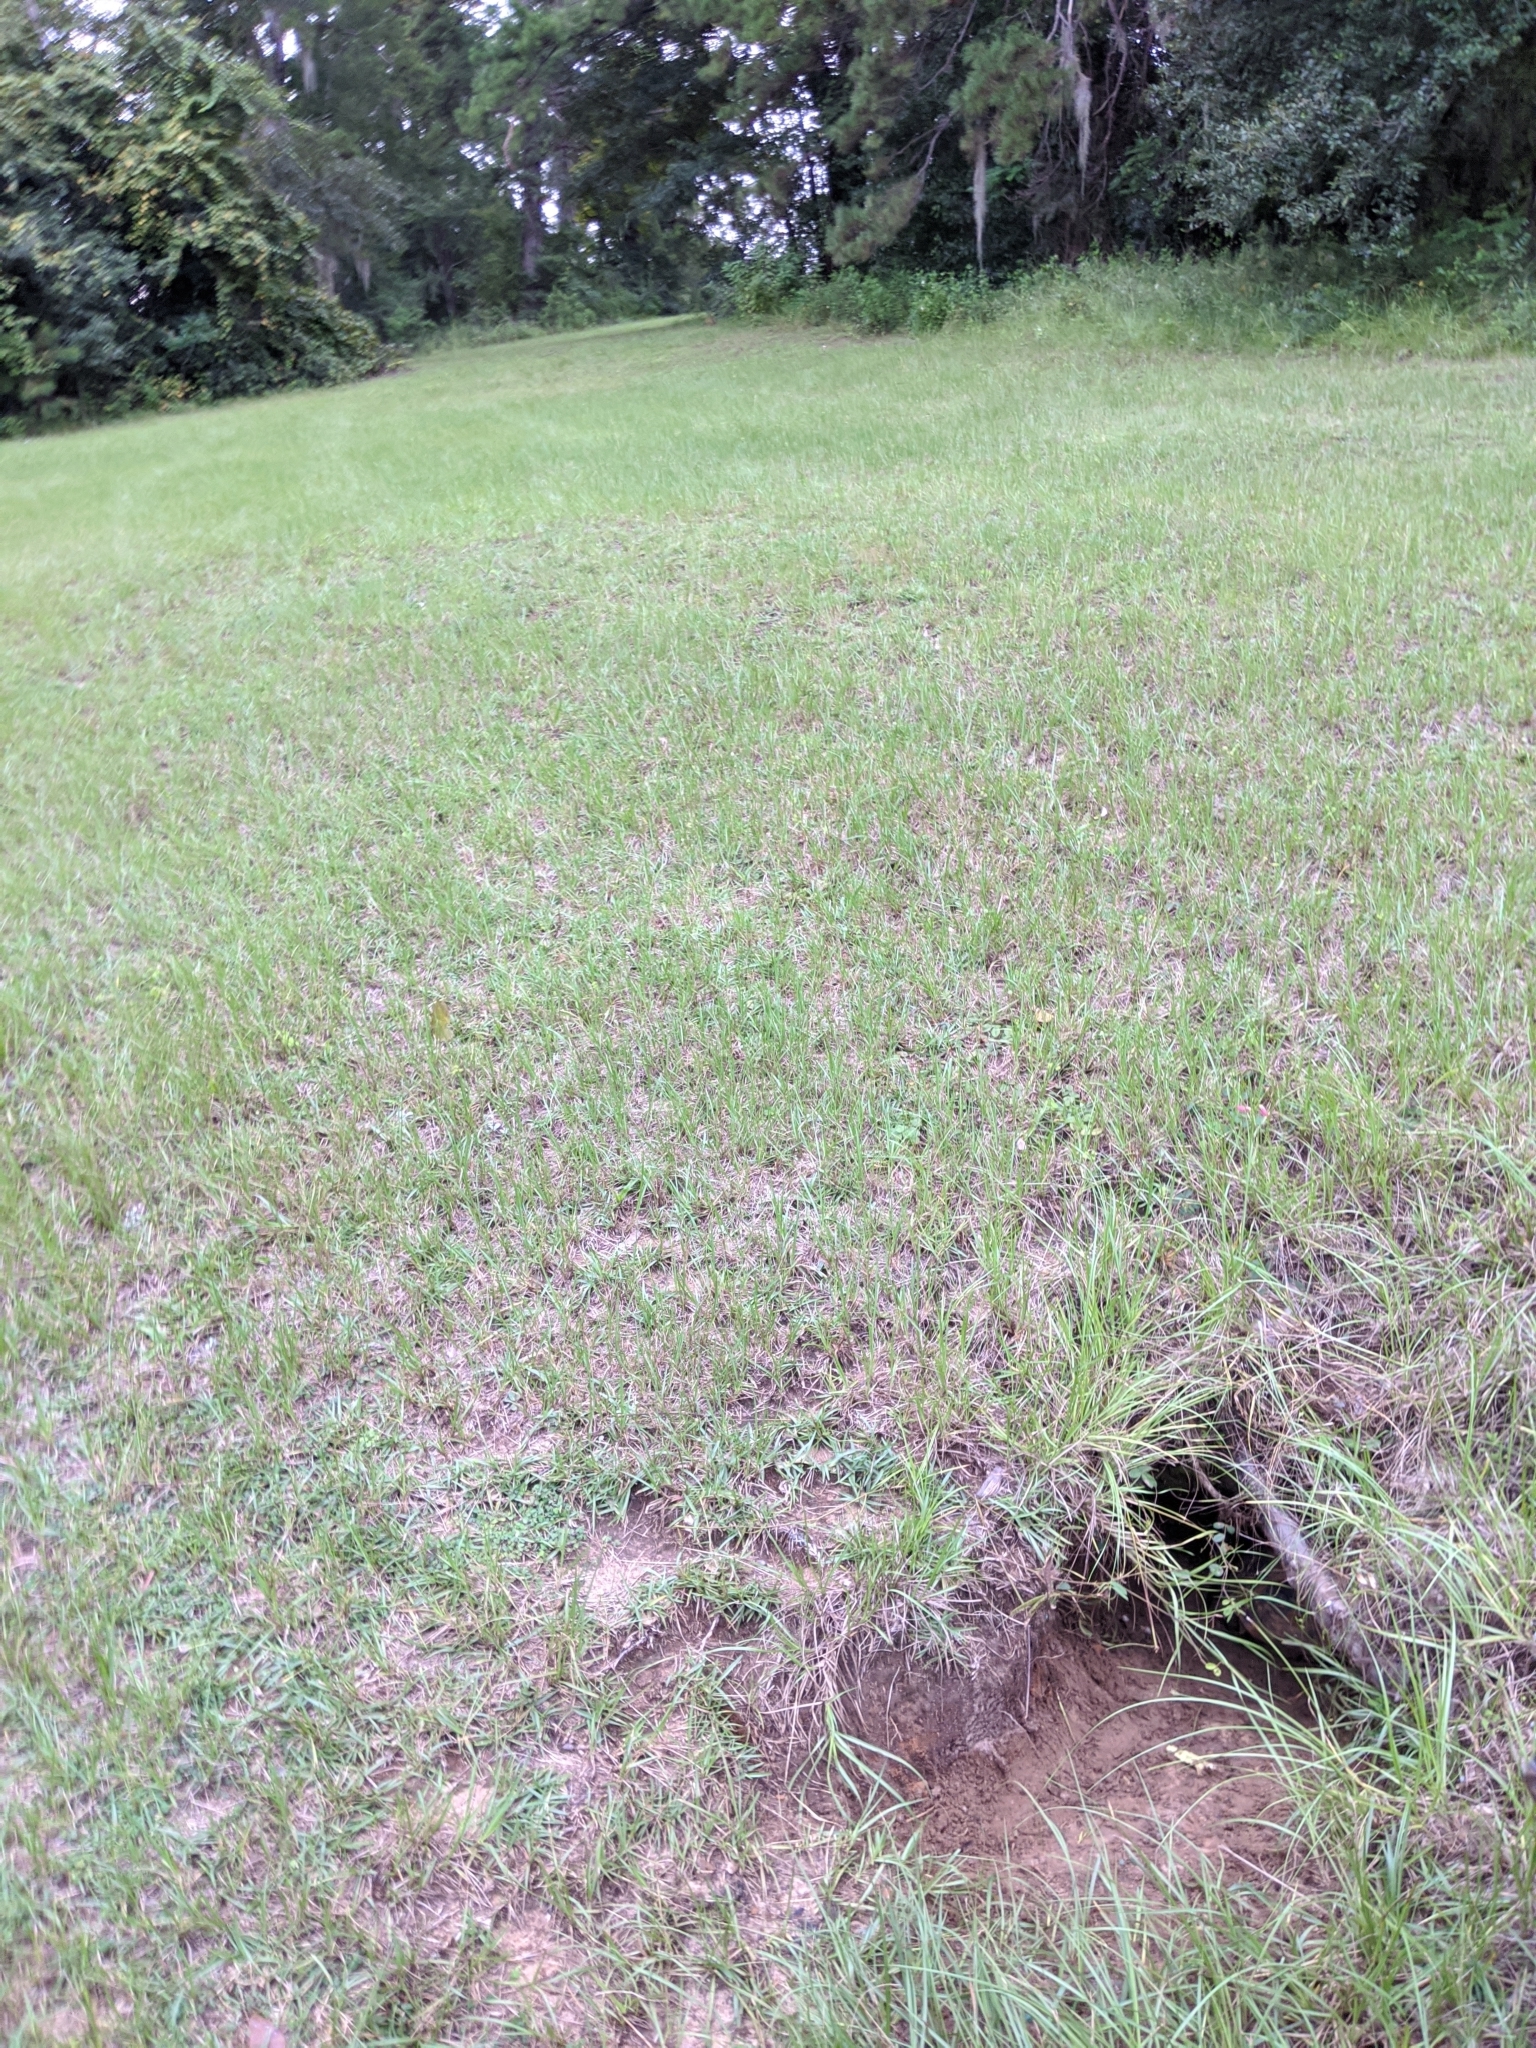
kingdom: Animalia
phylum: Chordata
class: Testudines
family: Testudinidae
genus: Gopherus
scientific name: Gopherus polyphemus
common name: Florida gopher tortoise
